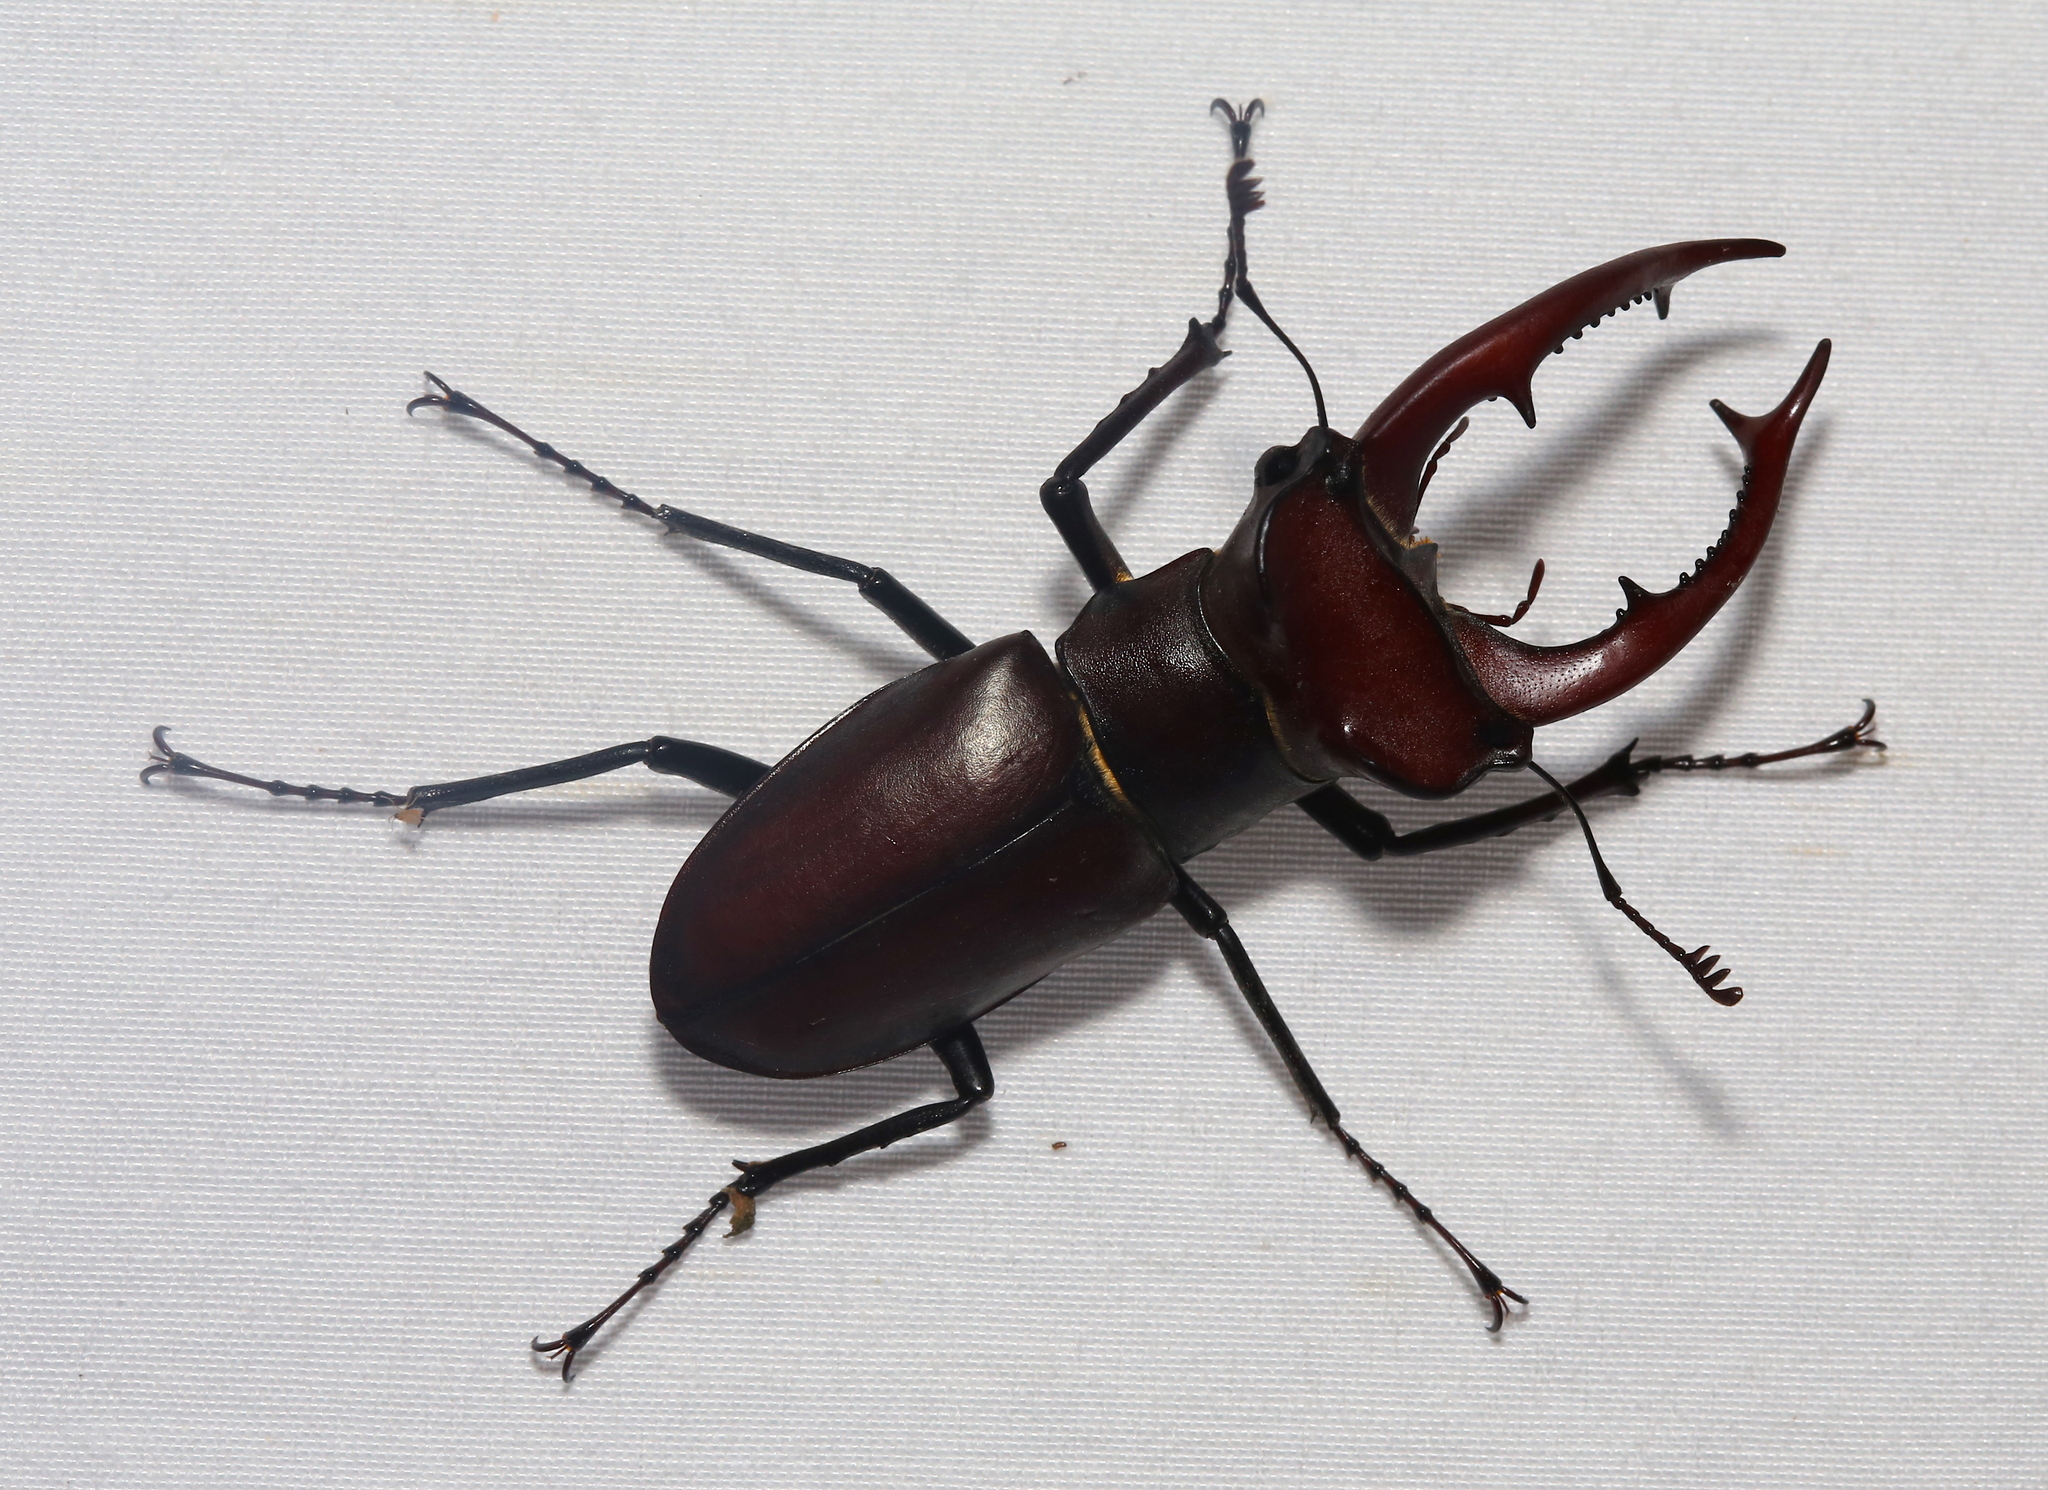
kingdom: Animalia
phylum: Arthropoda
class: Insecta
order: Coleoptera
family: Lucanidae
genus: Lucanus
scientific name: Lucanus elaphus
